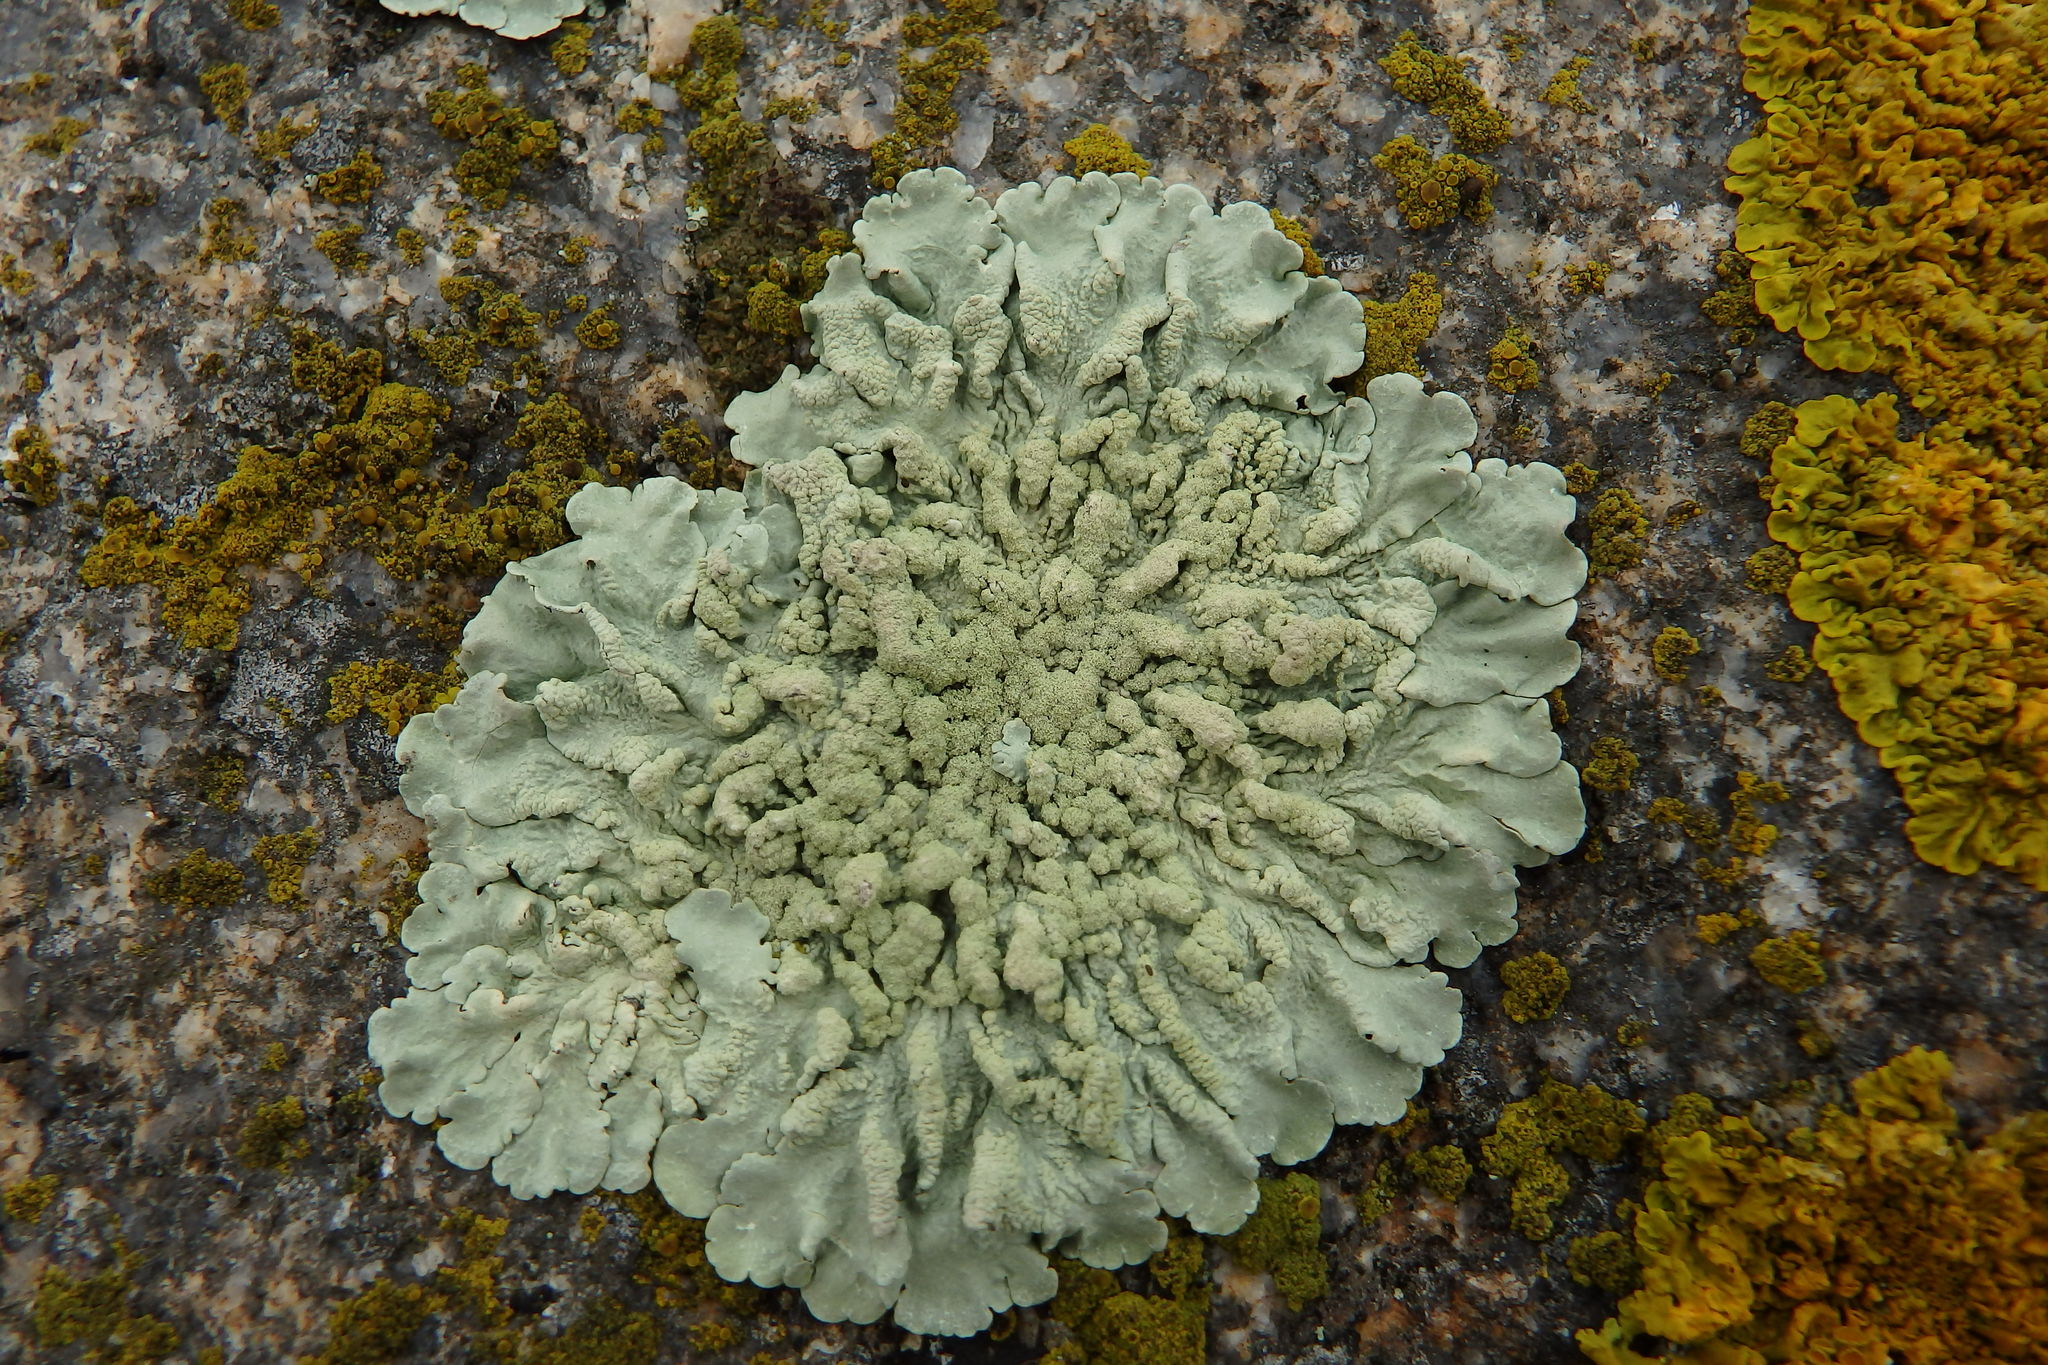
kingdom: Fungi
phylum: Ascomycota
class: Lecanoromycetes
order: Lecanorales
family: Parmeliaceae
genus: Flavoparmelia
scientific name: Flavoparmelia caperata
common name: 40-mile per hour lichen
